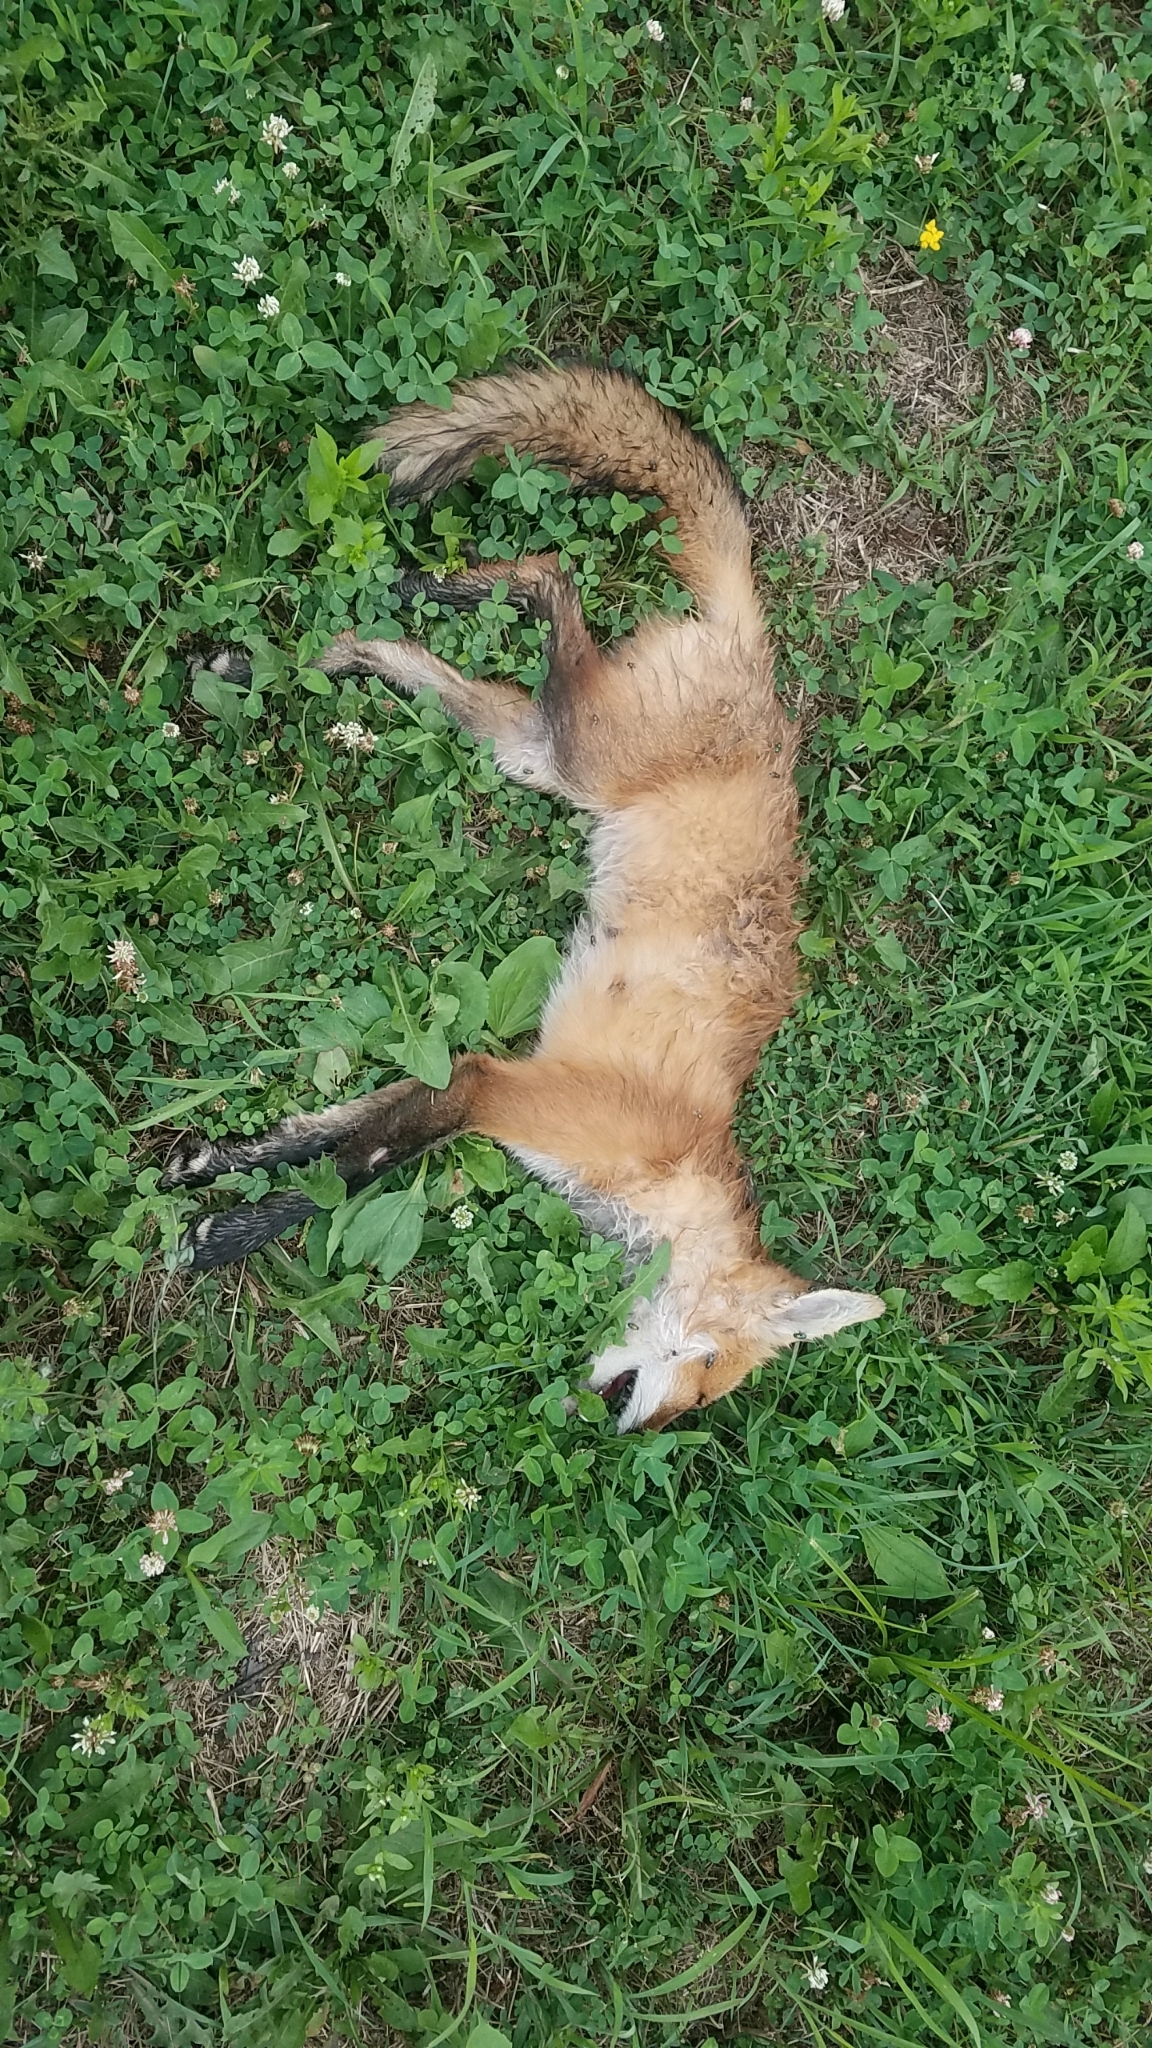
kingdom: Animalia
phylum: Chordata
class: Mammalia
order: Carnivora
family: Canidae
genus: Vulpes
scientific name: Vulpes vulpes
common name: Red fox
